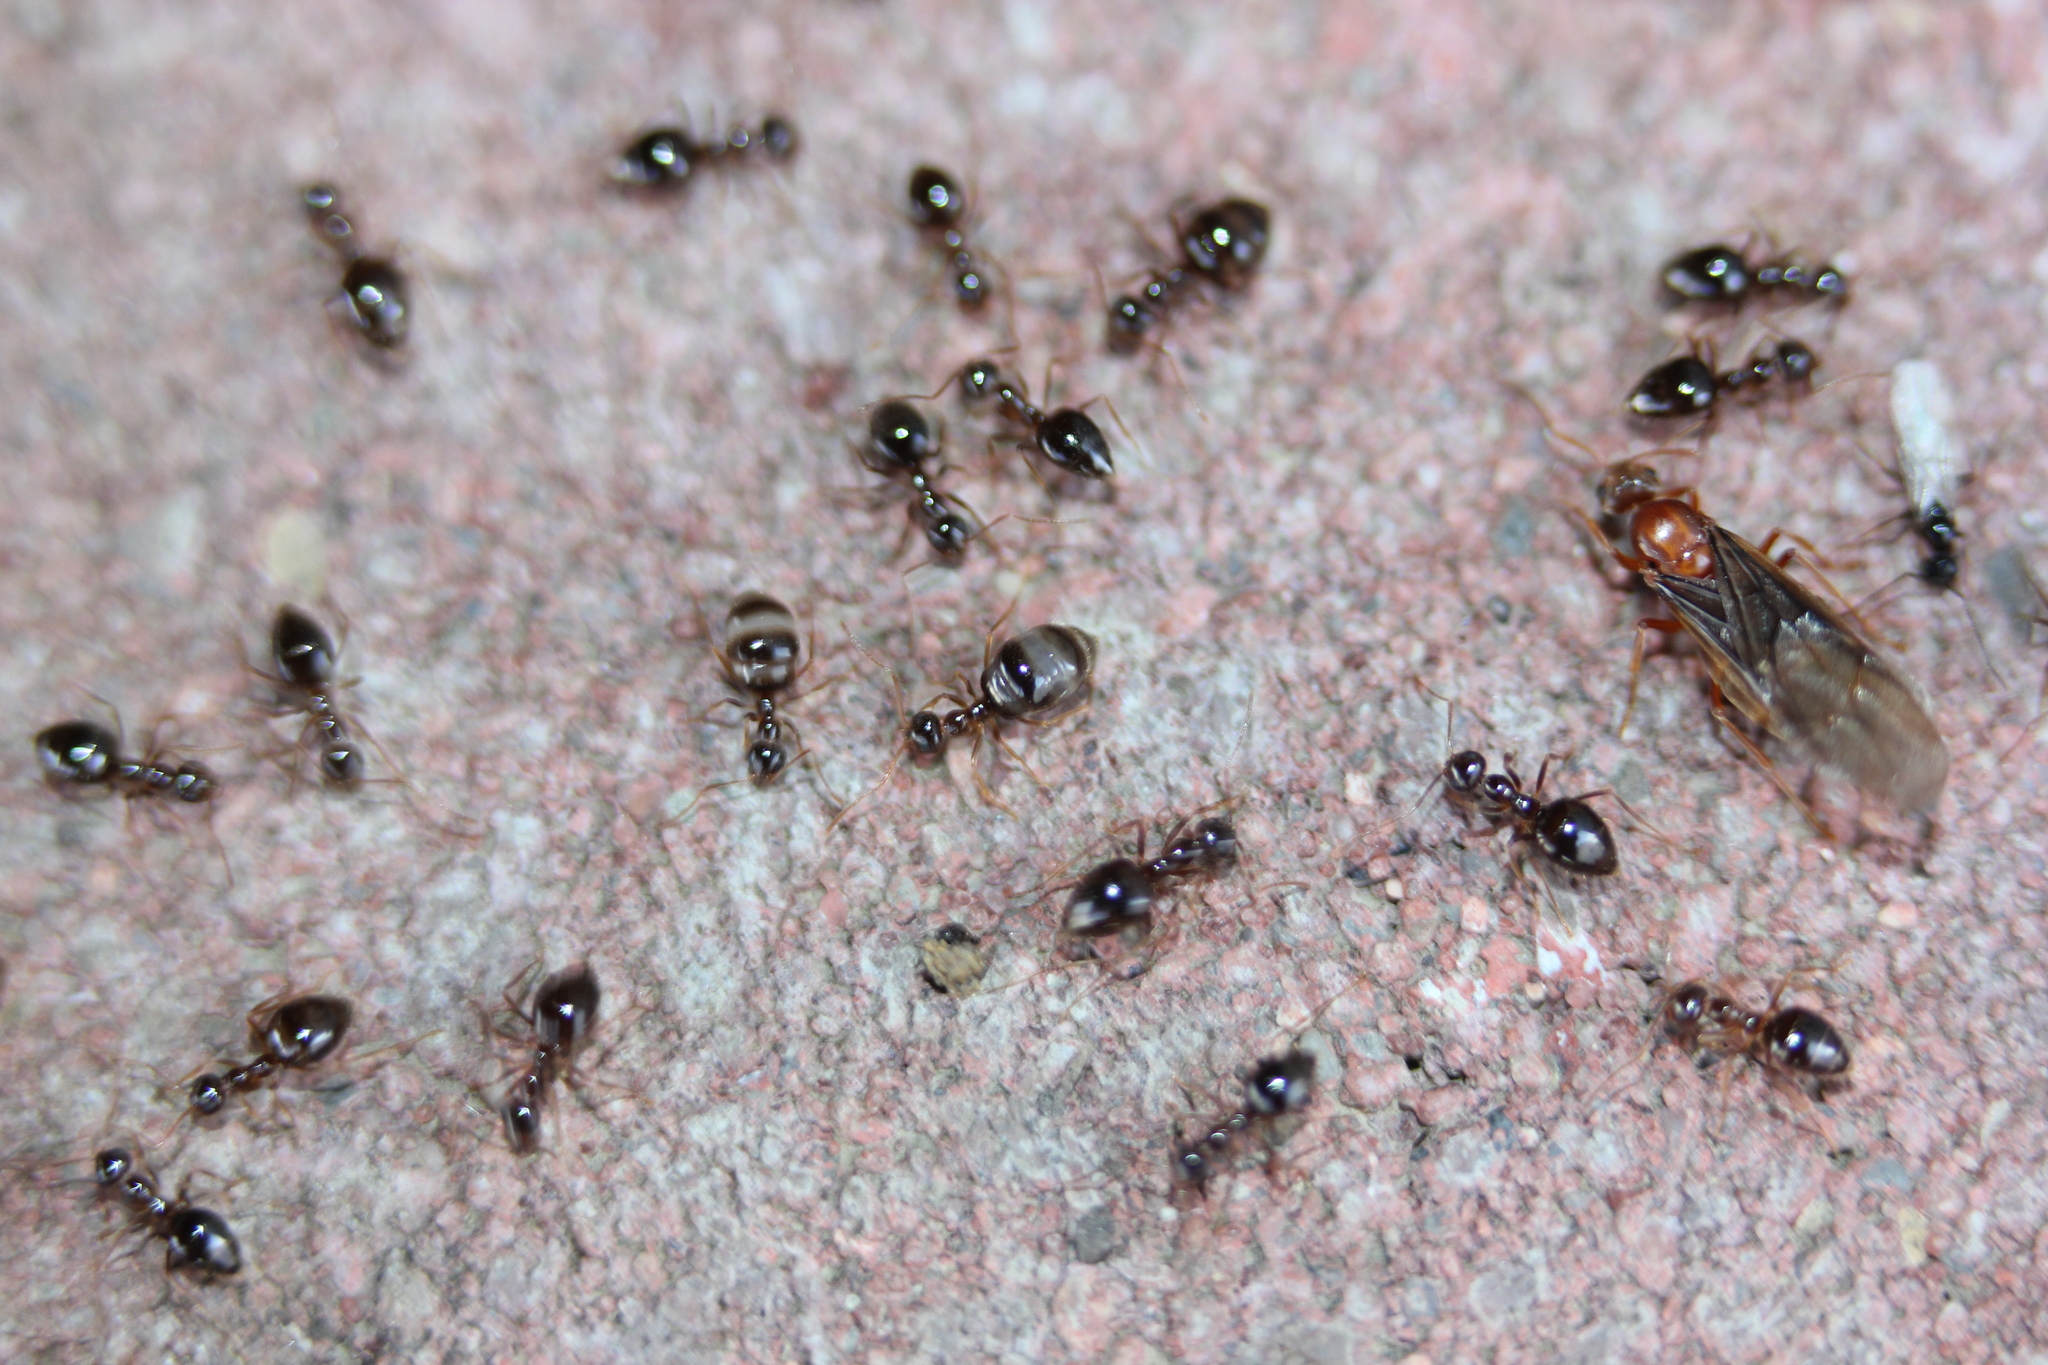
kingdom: Animalia
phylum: Arthropoda
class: Insecta
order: Hymenoptera
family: Formicidae
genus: Prenolepis
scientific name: Prenolepis imparis
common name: Small honey ant
